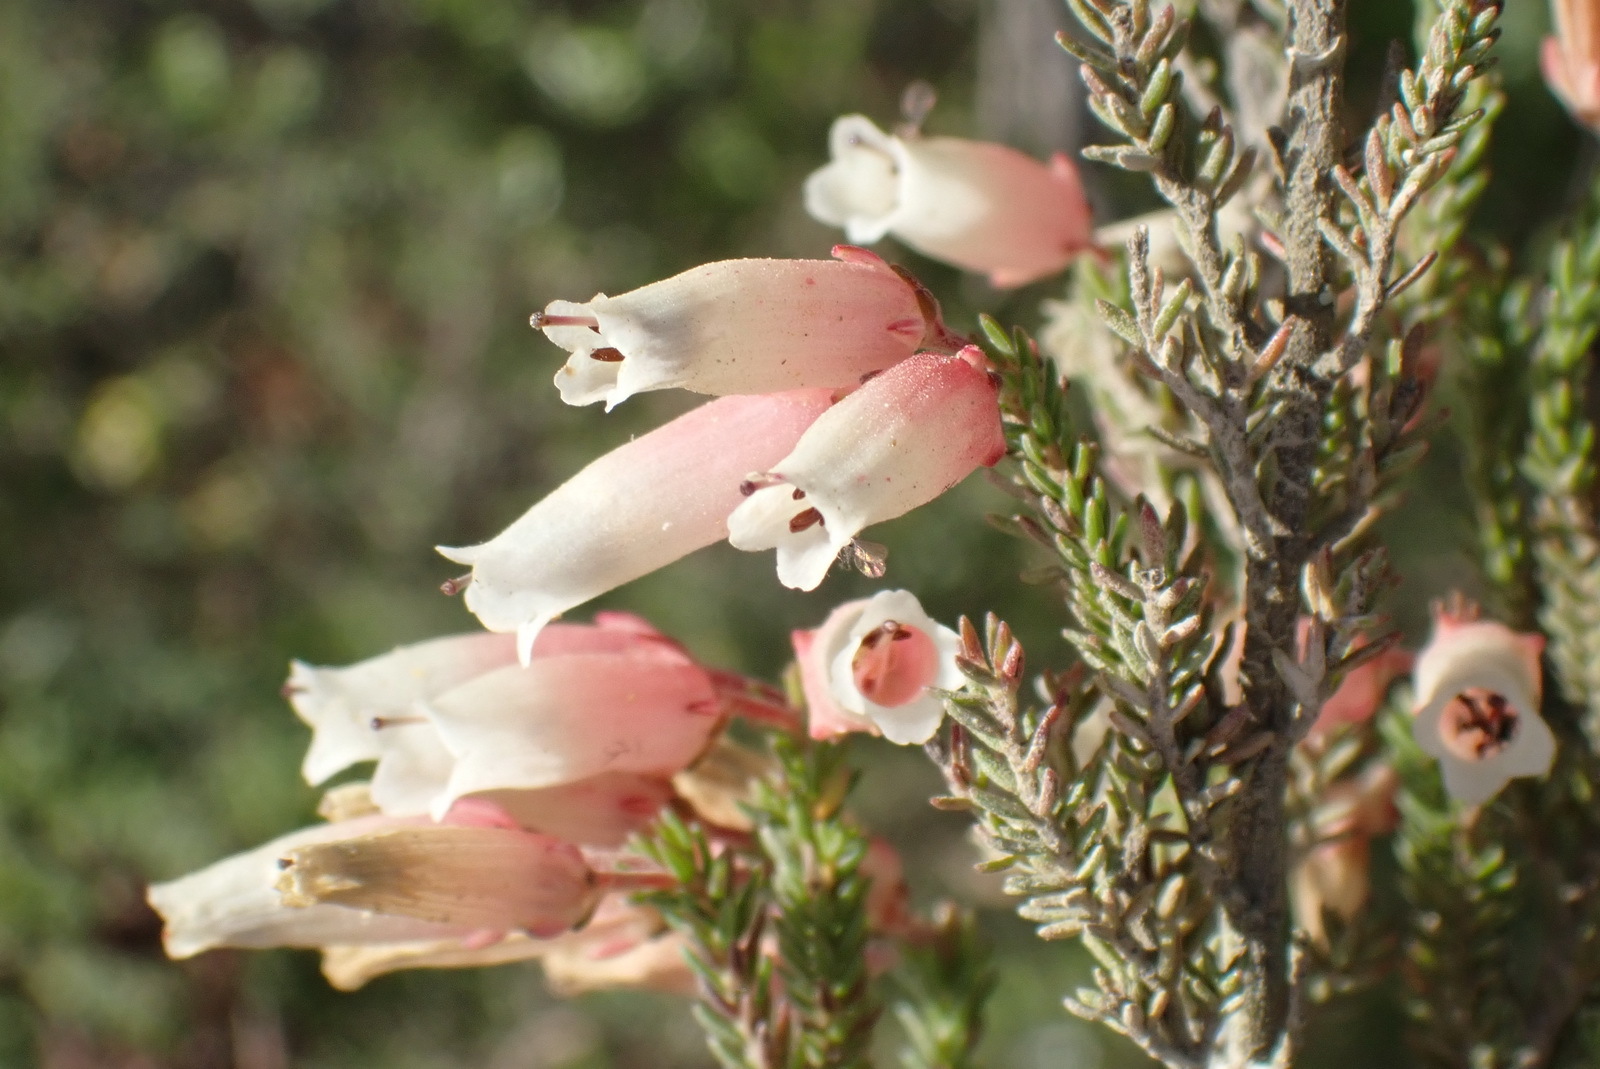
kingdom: Plantae
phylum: Tracheophyta
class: Magnoliopsida
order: Ericales
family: Ericaceae
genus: Erica
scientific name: Erica recta
